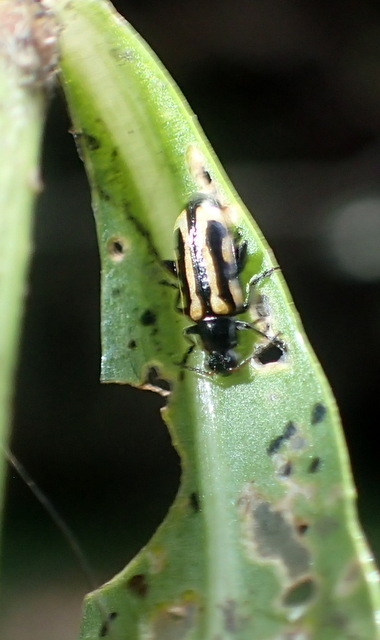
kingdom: Animalia
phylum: Arthropoda
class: Insecta
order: Coleoptera
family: Chrysomelidae
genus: Agasicles
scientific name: Agasicles hygrophila
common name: Alligatorweed flea beetle
